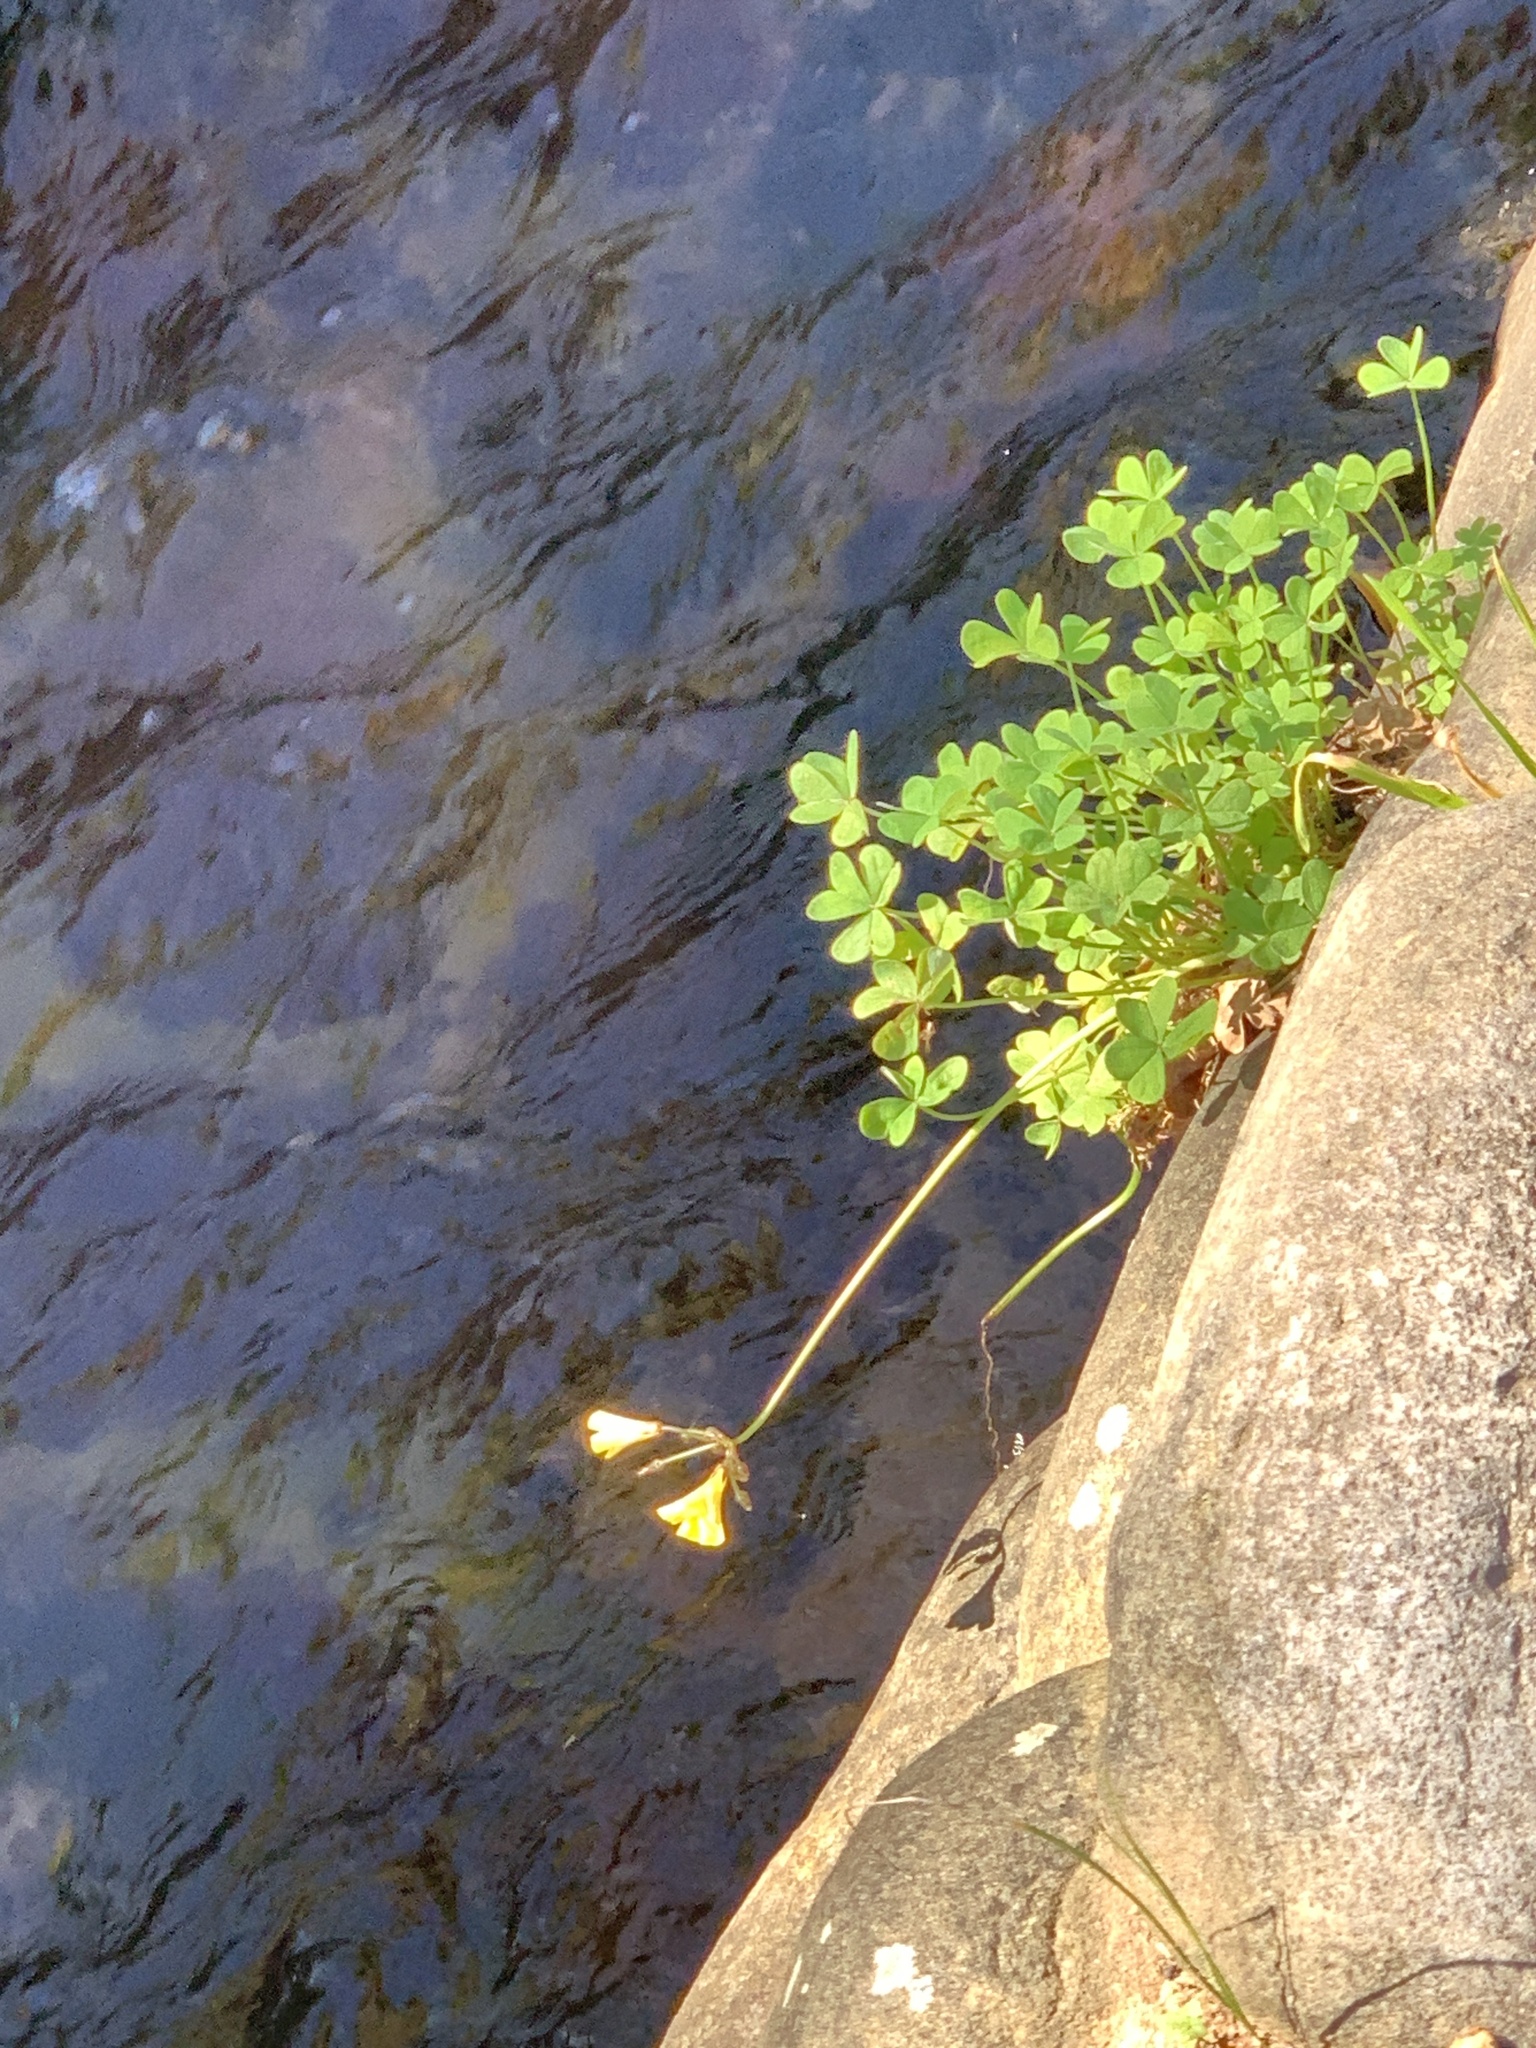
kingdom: Plantae
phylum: Tracheophyta
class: Magnoliopsida
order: Oxalidales
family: Oxalidaceae
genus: Oxalis
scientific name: Oxalis pes-caprae
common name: Bermuda-buttercup
